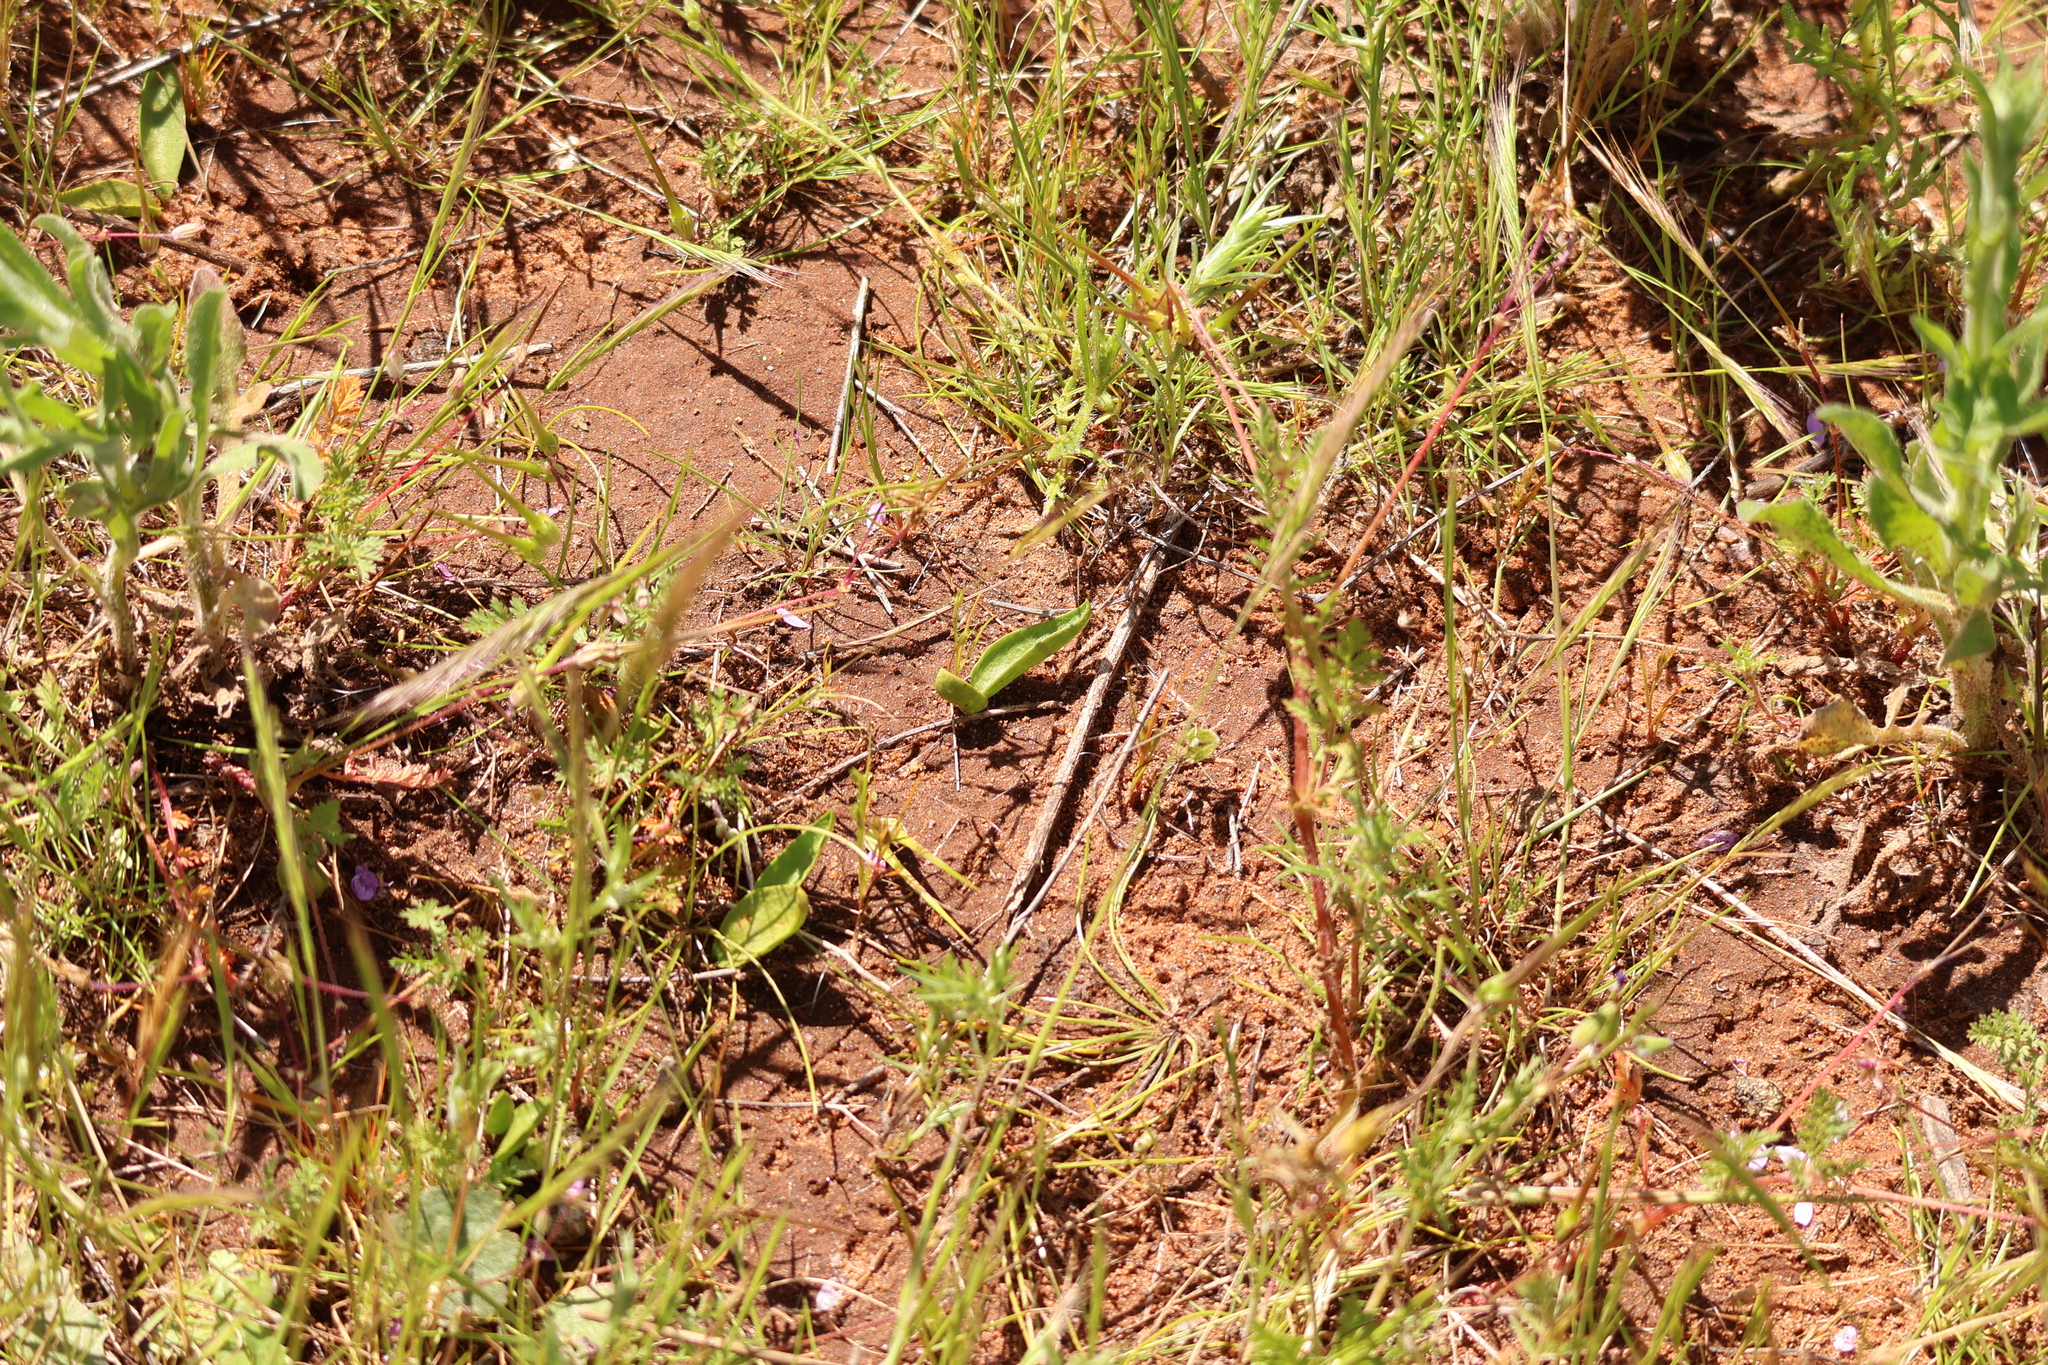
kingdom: Plantae
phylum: Tracheophyta
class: Polypodiopsida
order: Ophioglossales
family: Ophioglossaceae
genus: Ophioglossum
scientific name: Ophioglossum californicum
